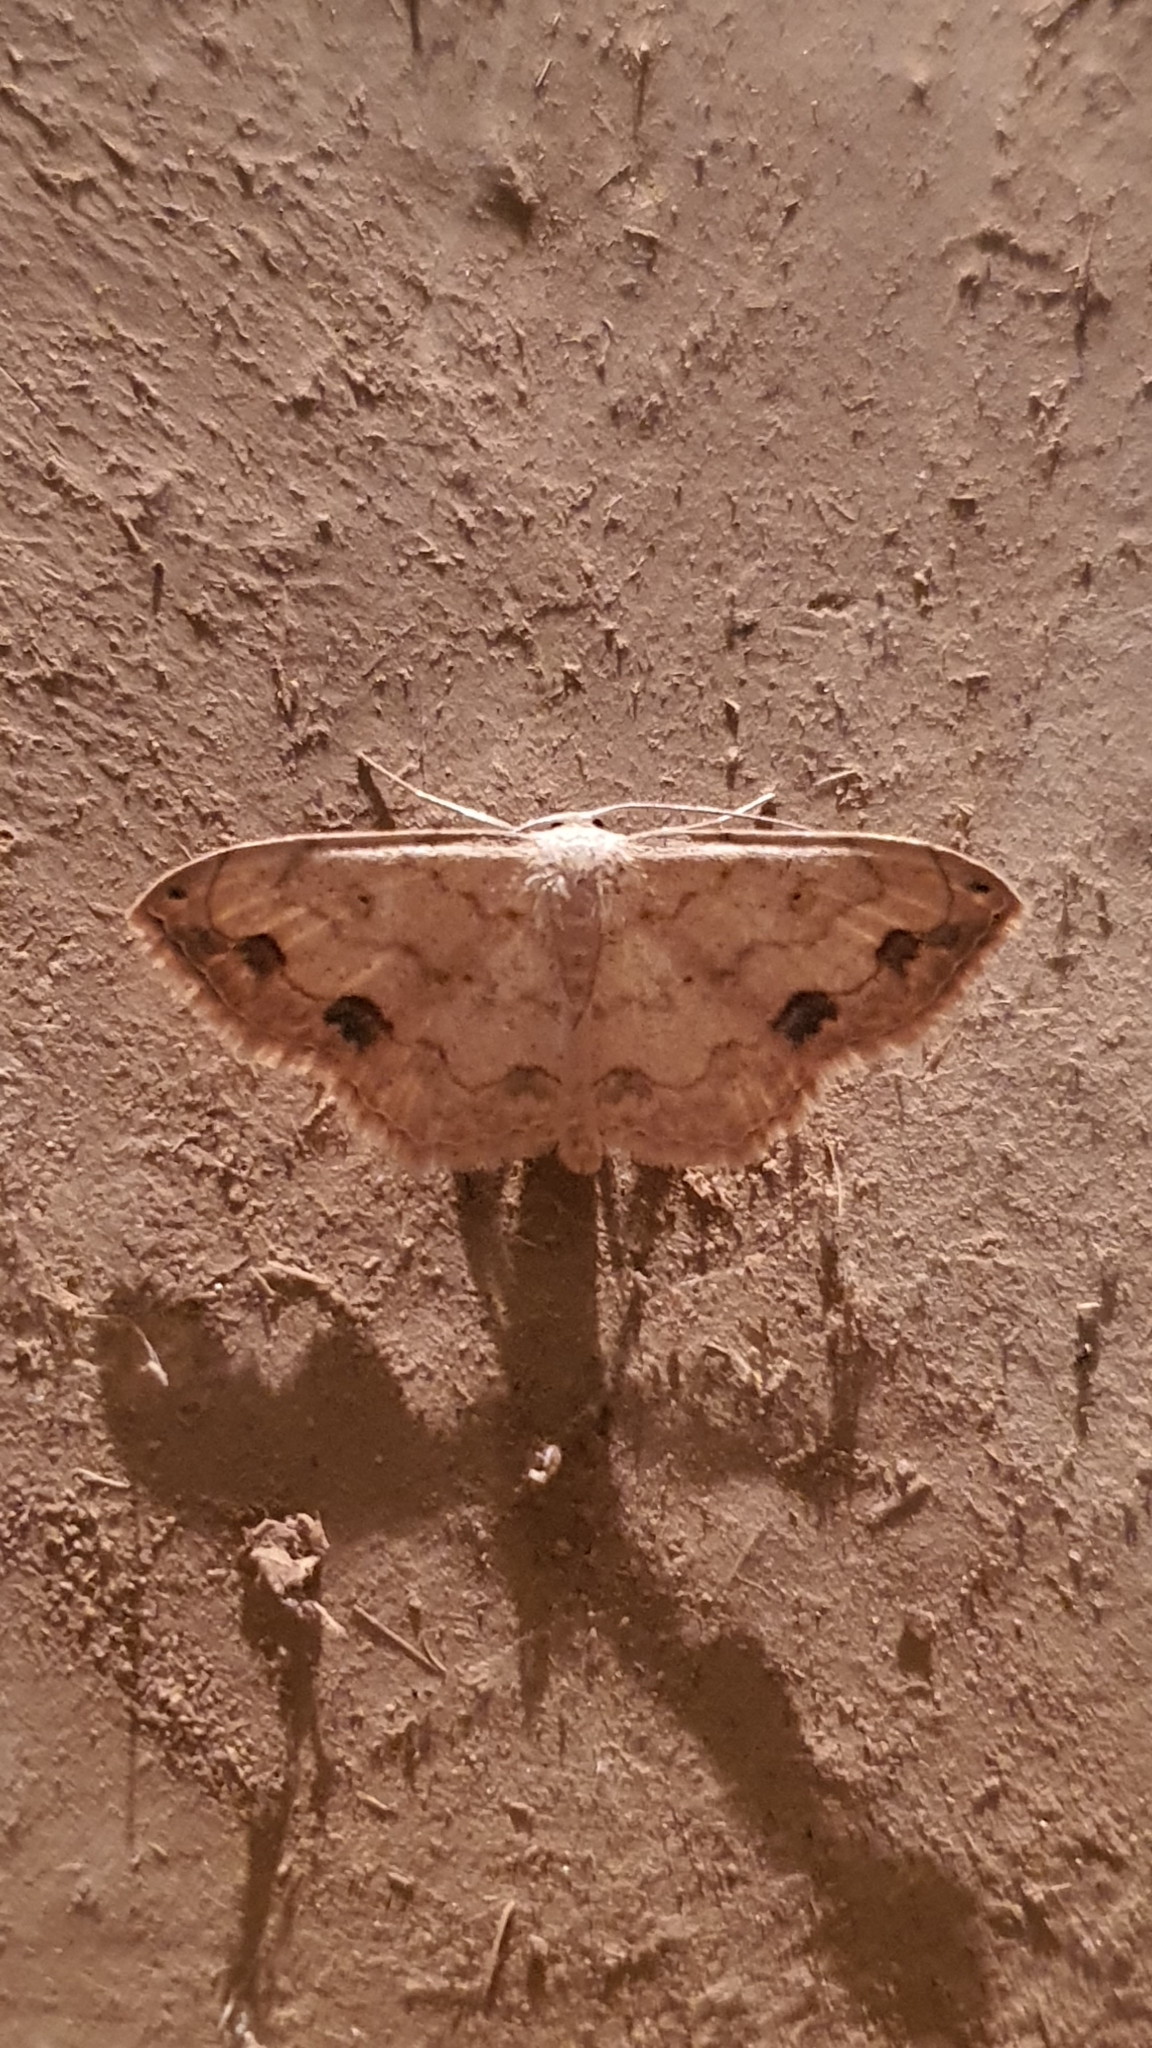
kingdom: Animalia
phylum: Arthropoda
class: Insecta
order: Lepidoptera
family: Geometridae
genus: Scopula
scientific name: Scopula addictaria
